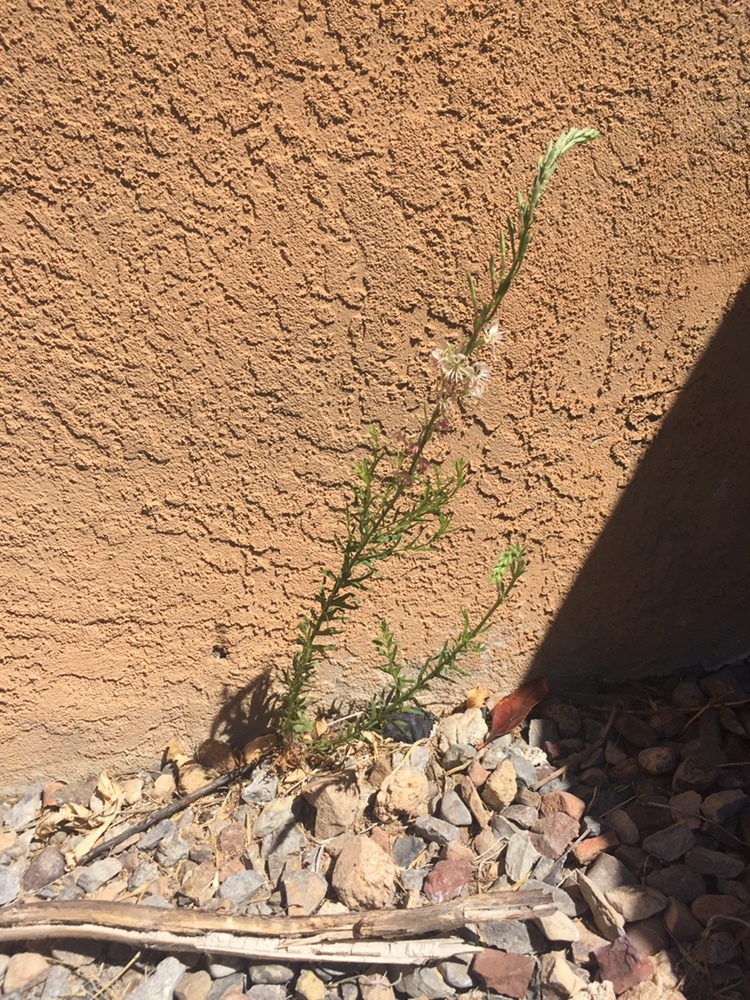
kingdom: Plantae
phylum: Tracheophyta
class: Magnoliopsida
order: Myrtales
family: Onagraceae
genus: Oenothera
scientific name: Oenothera suffrutescens
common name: Scarlet beeblossom
